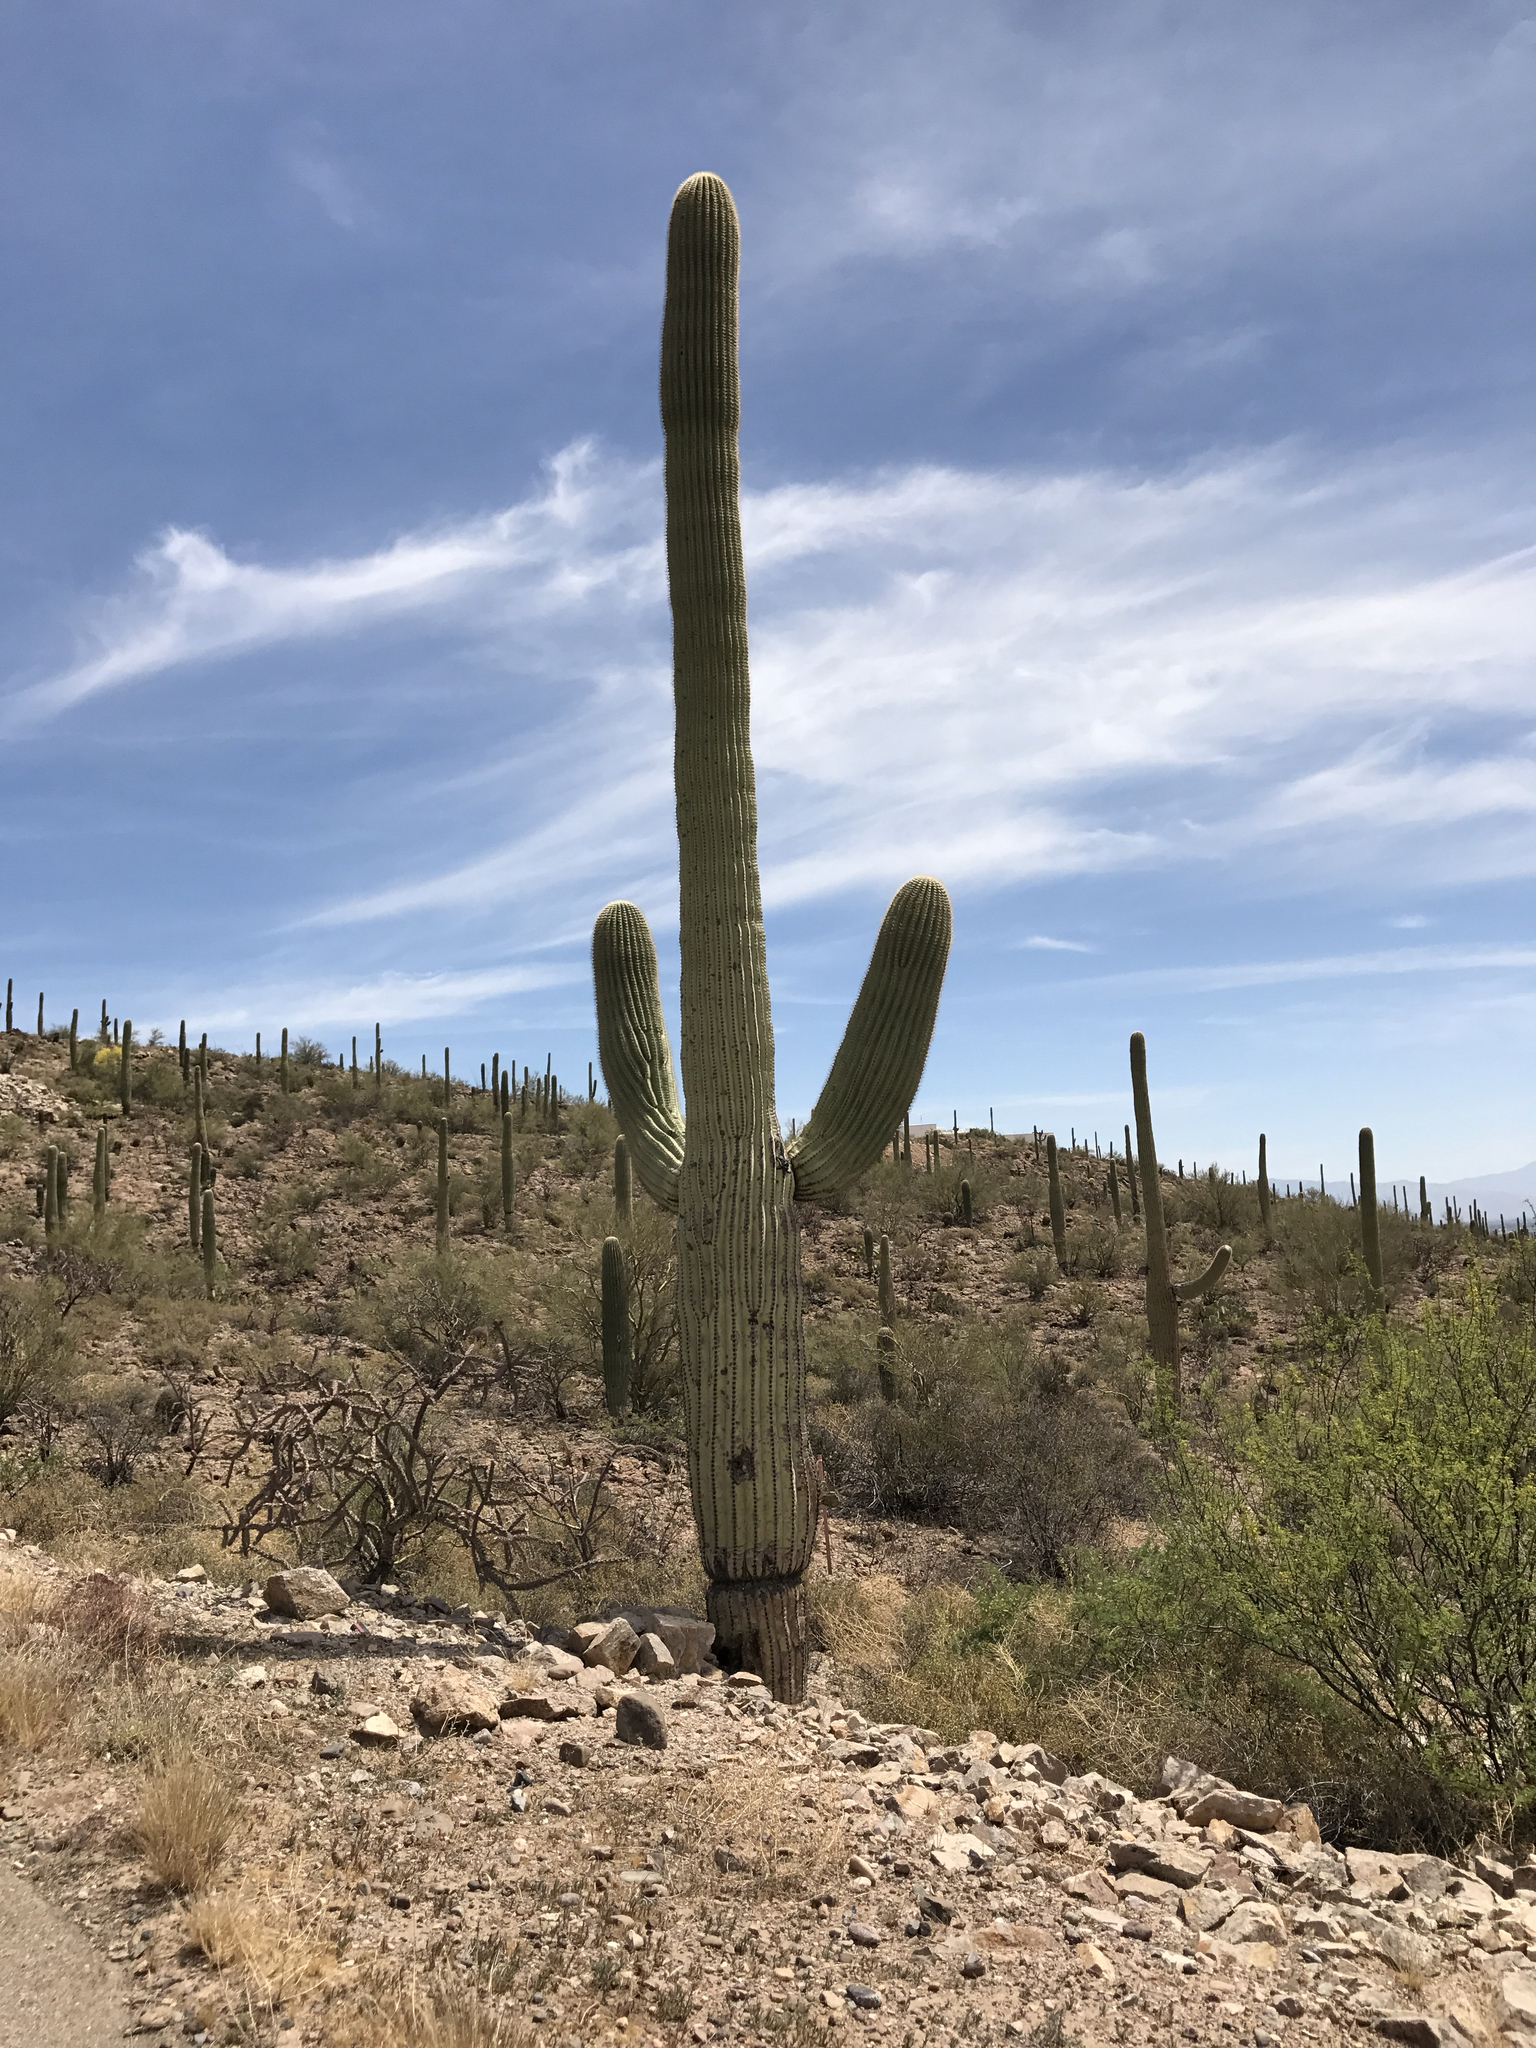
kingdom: Plantae
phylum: Tracheophyta
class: Magnoliopsida
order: Caryophyllales
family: Cactaceae
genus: Carnegiea
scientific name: Carnegiea gigantea
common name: Saguaro
